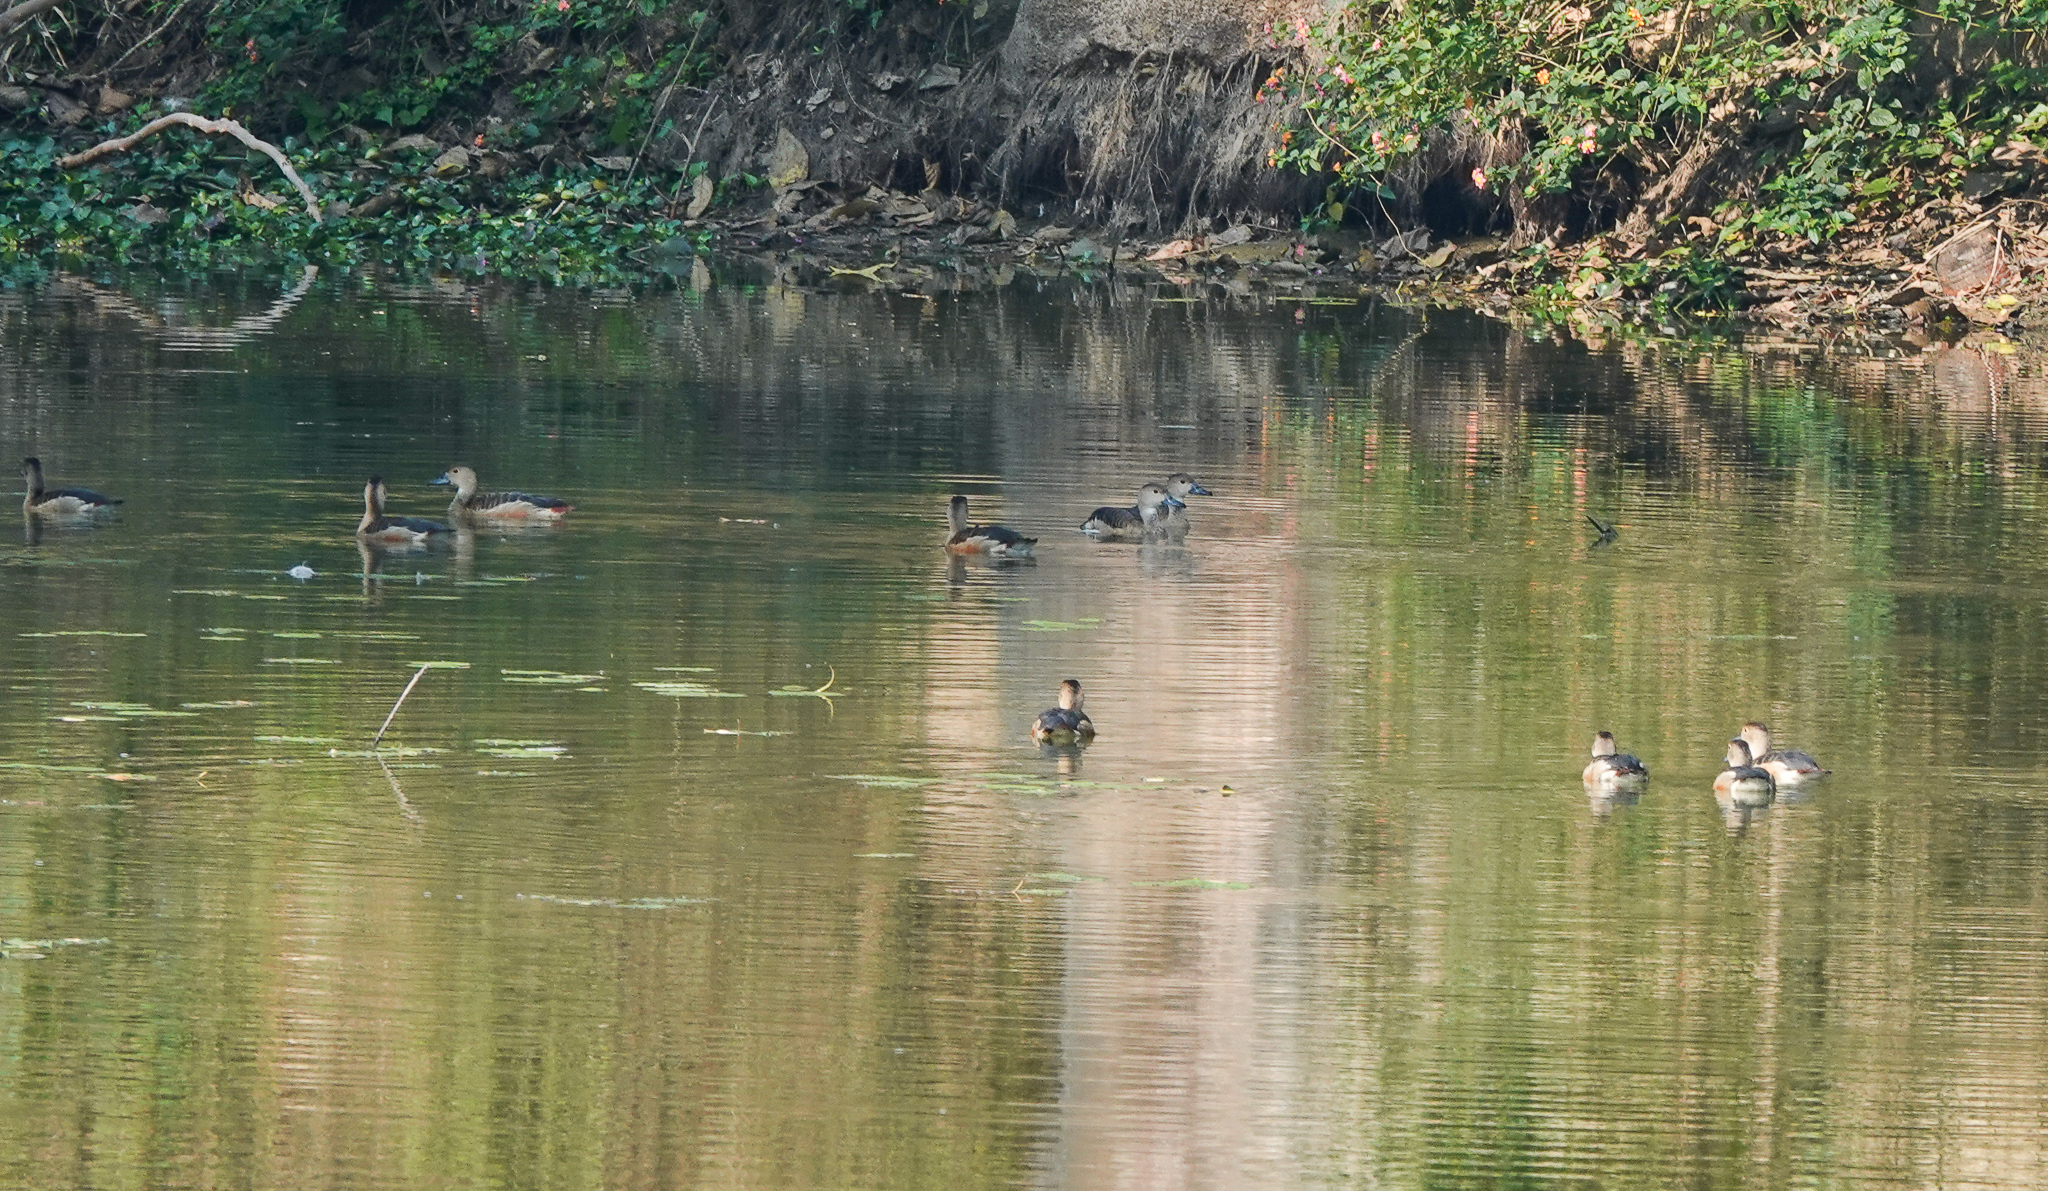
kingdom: Animalia
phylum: Chordata
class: Aves
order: Anseriformes
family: Anatidae
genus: Dendrocygna
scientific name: Dendrocygna javanica
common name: Lesser whistling-duck
